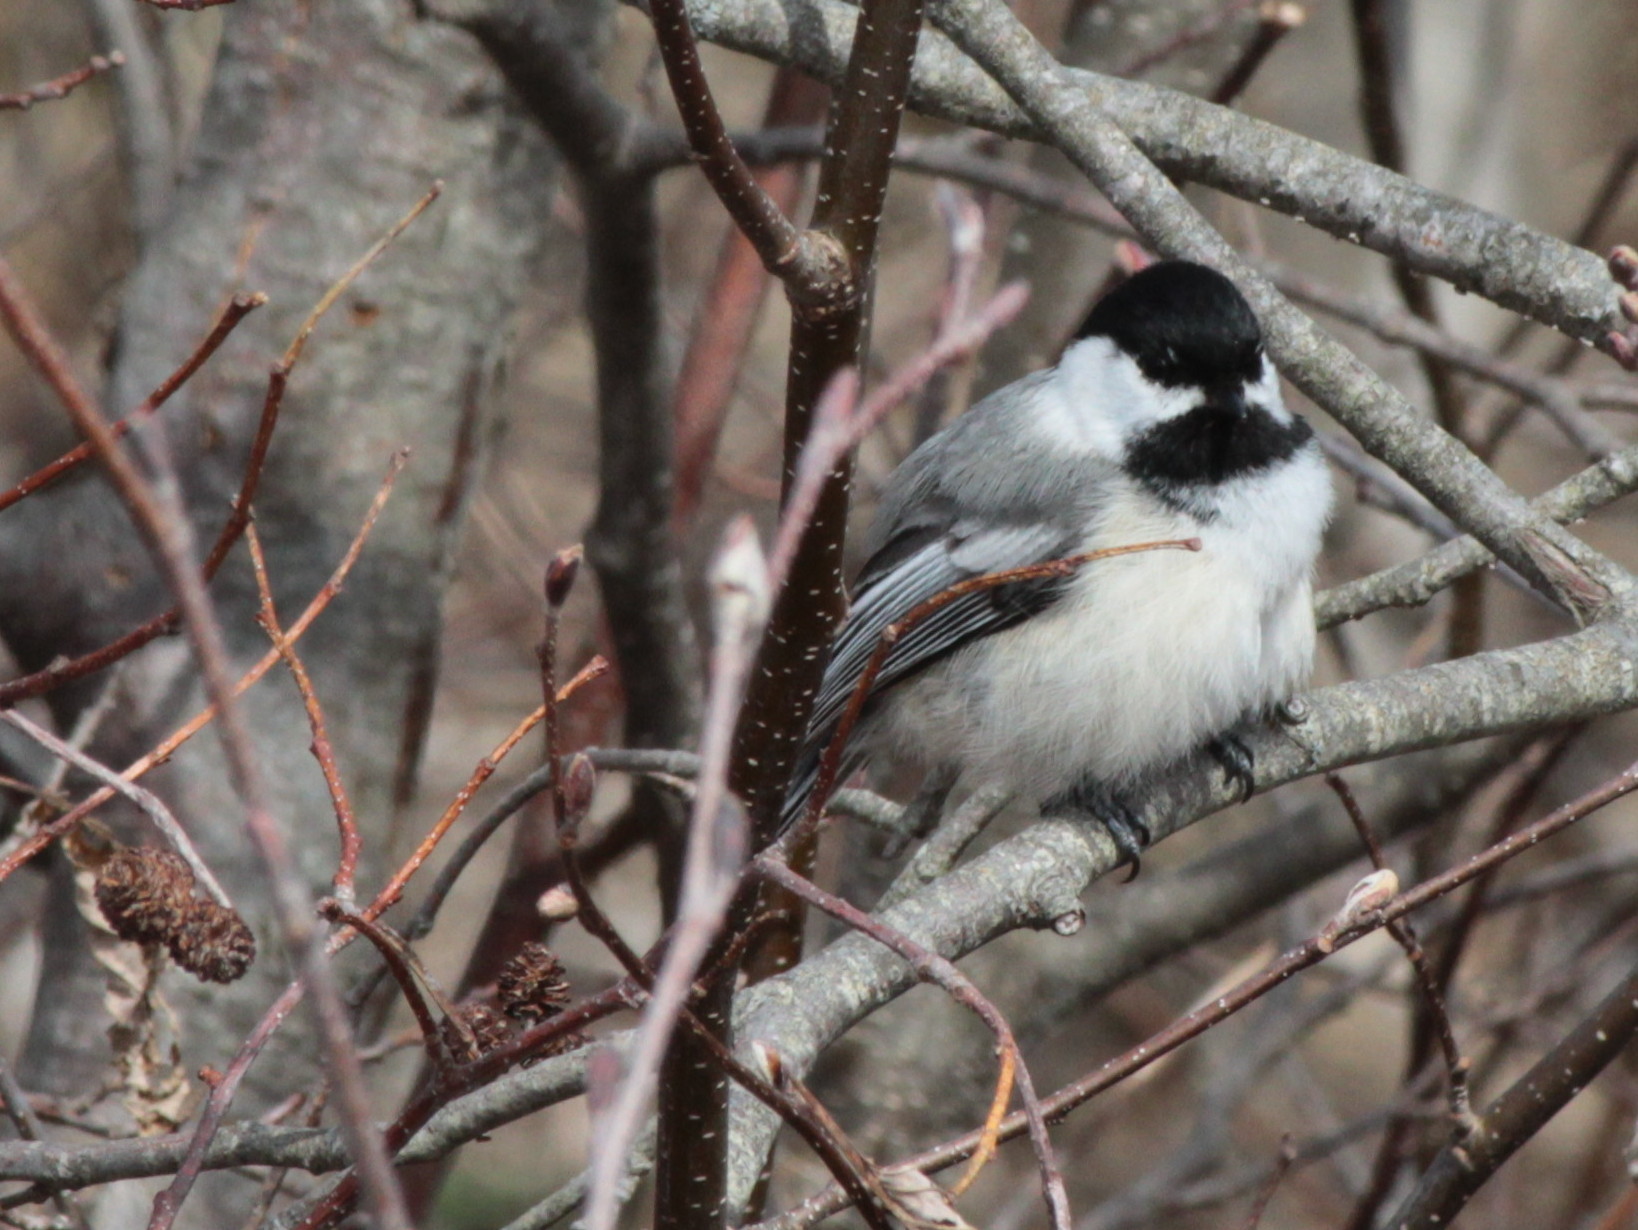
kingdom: Animalia
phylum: Chordata
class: Aves
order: Passeriformes
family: Paridae
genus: Poecile
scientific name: Poecile atricapillus
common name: Black-capped chickadee
